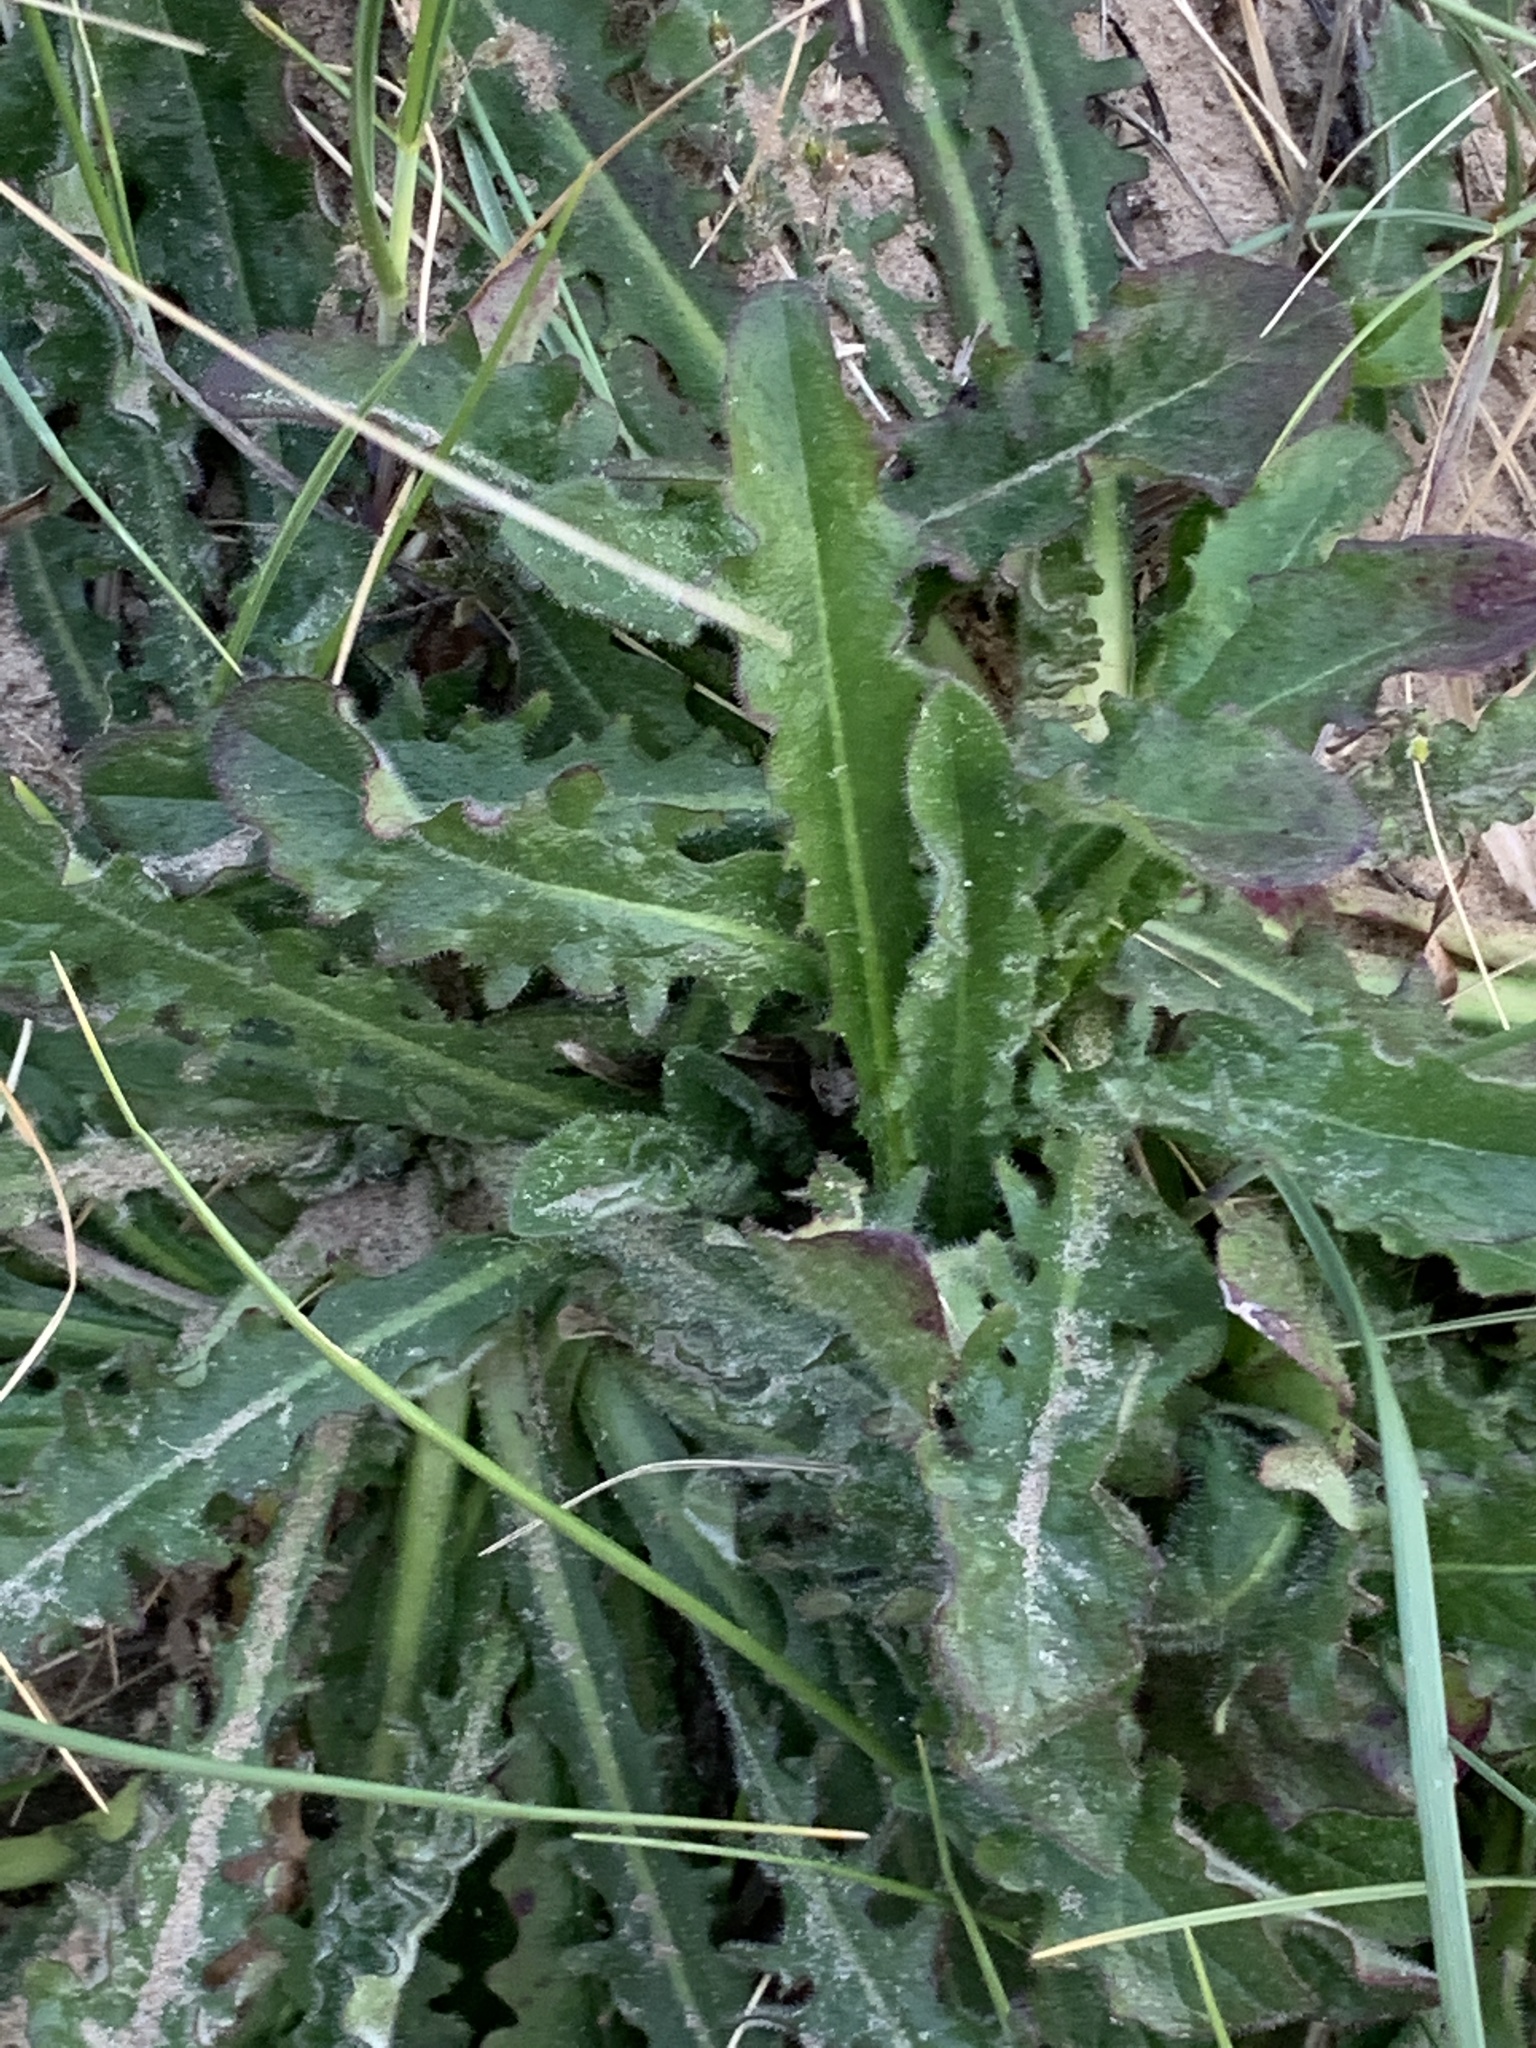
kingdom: Plantae
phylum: Tracheophyta
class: Magnoliopsida
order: Asterales
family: Asteraceae
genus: Hypochaeris
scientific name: Hypochaeris radicata
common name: Flatweed
